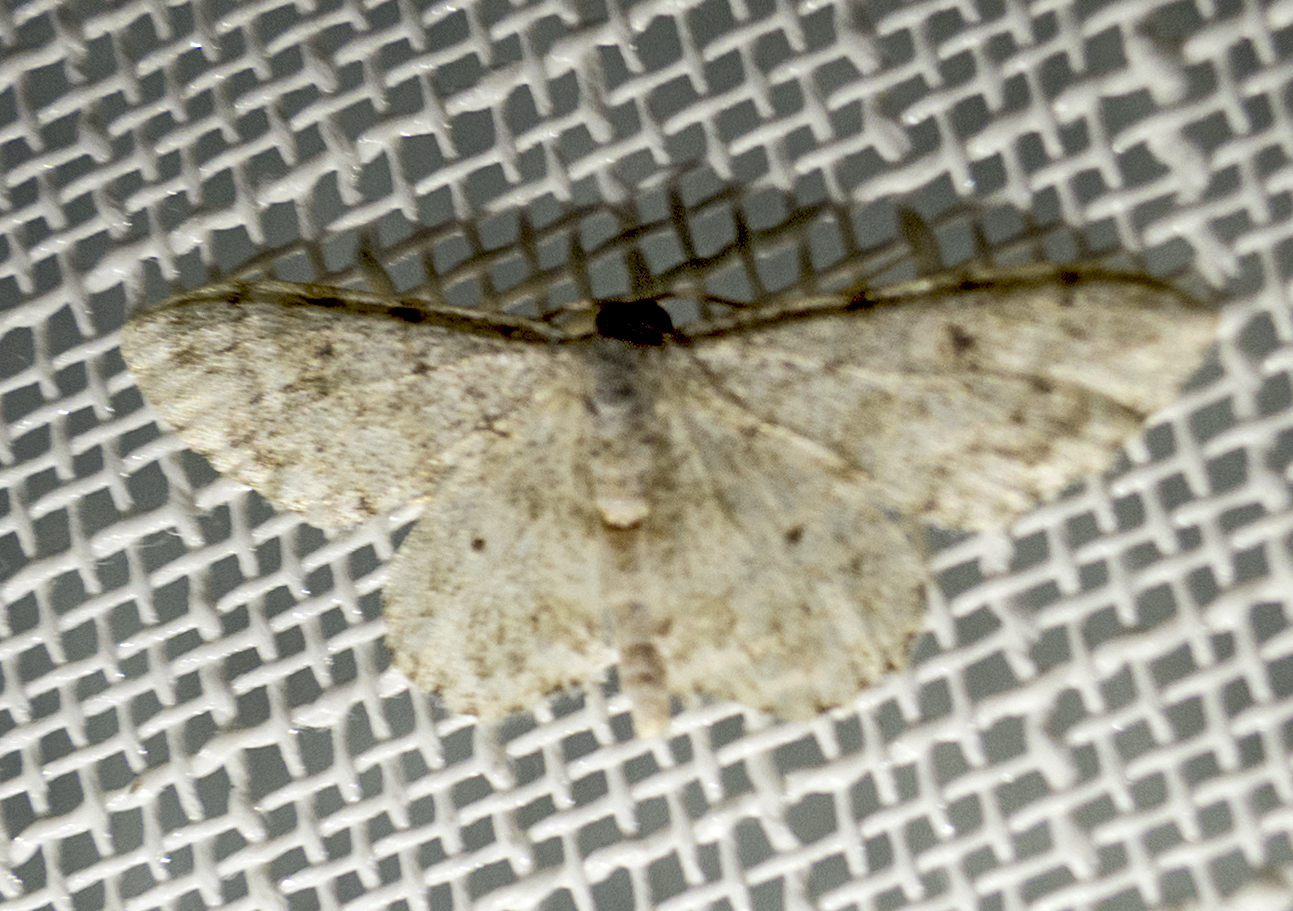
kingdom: Animalia
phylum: Arthropoda
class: Insecta
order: Lepidoptera
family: Geometridae
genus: Idaea
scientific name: Idaea camparia
